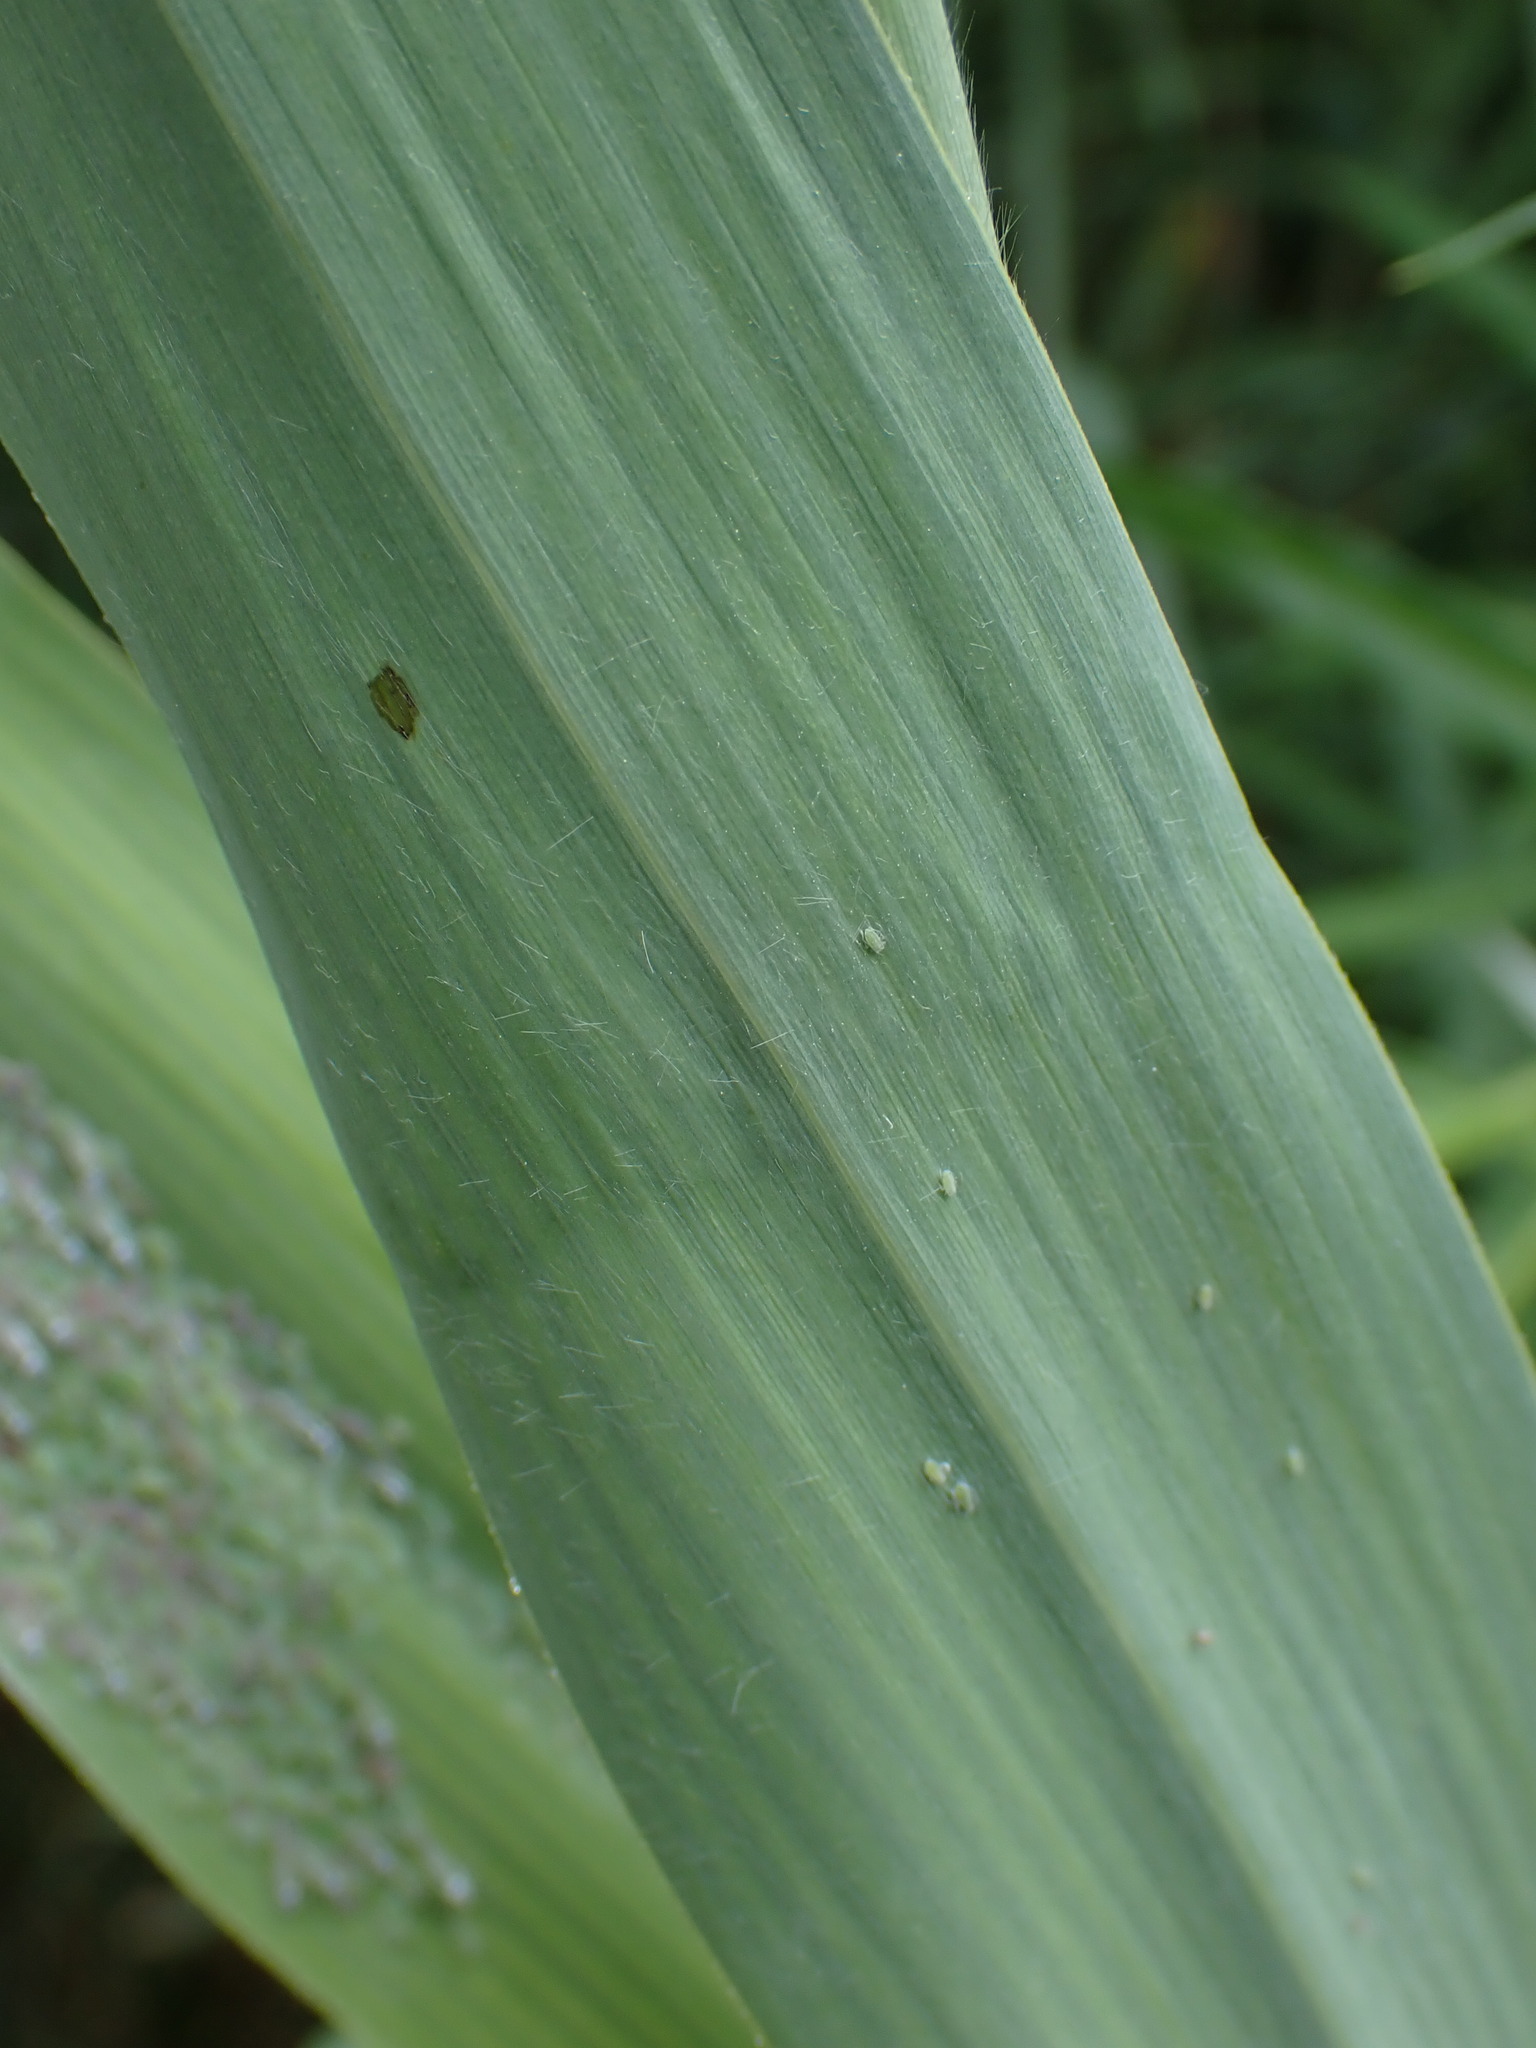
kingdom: Plantae
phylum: Tracheophyta
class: Liliopsida
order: Poales
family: Poaceae
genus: Phragmites
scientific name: Phragmites australis
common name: Common reed
